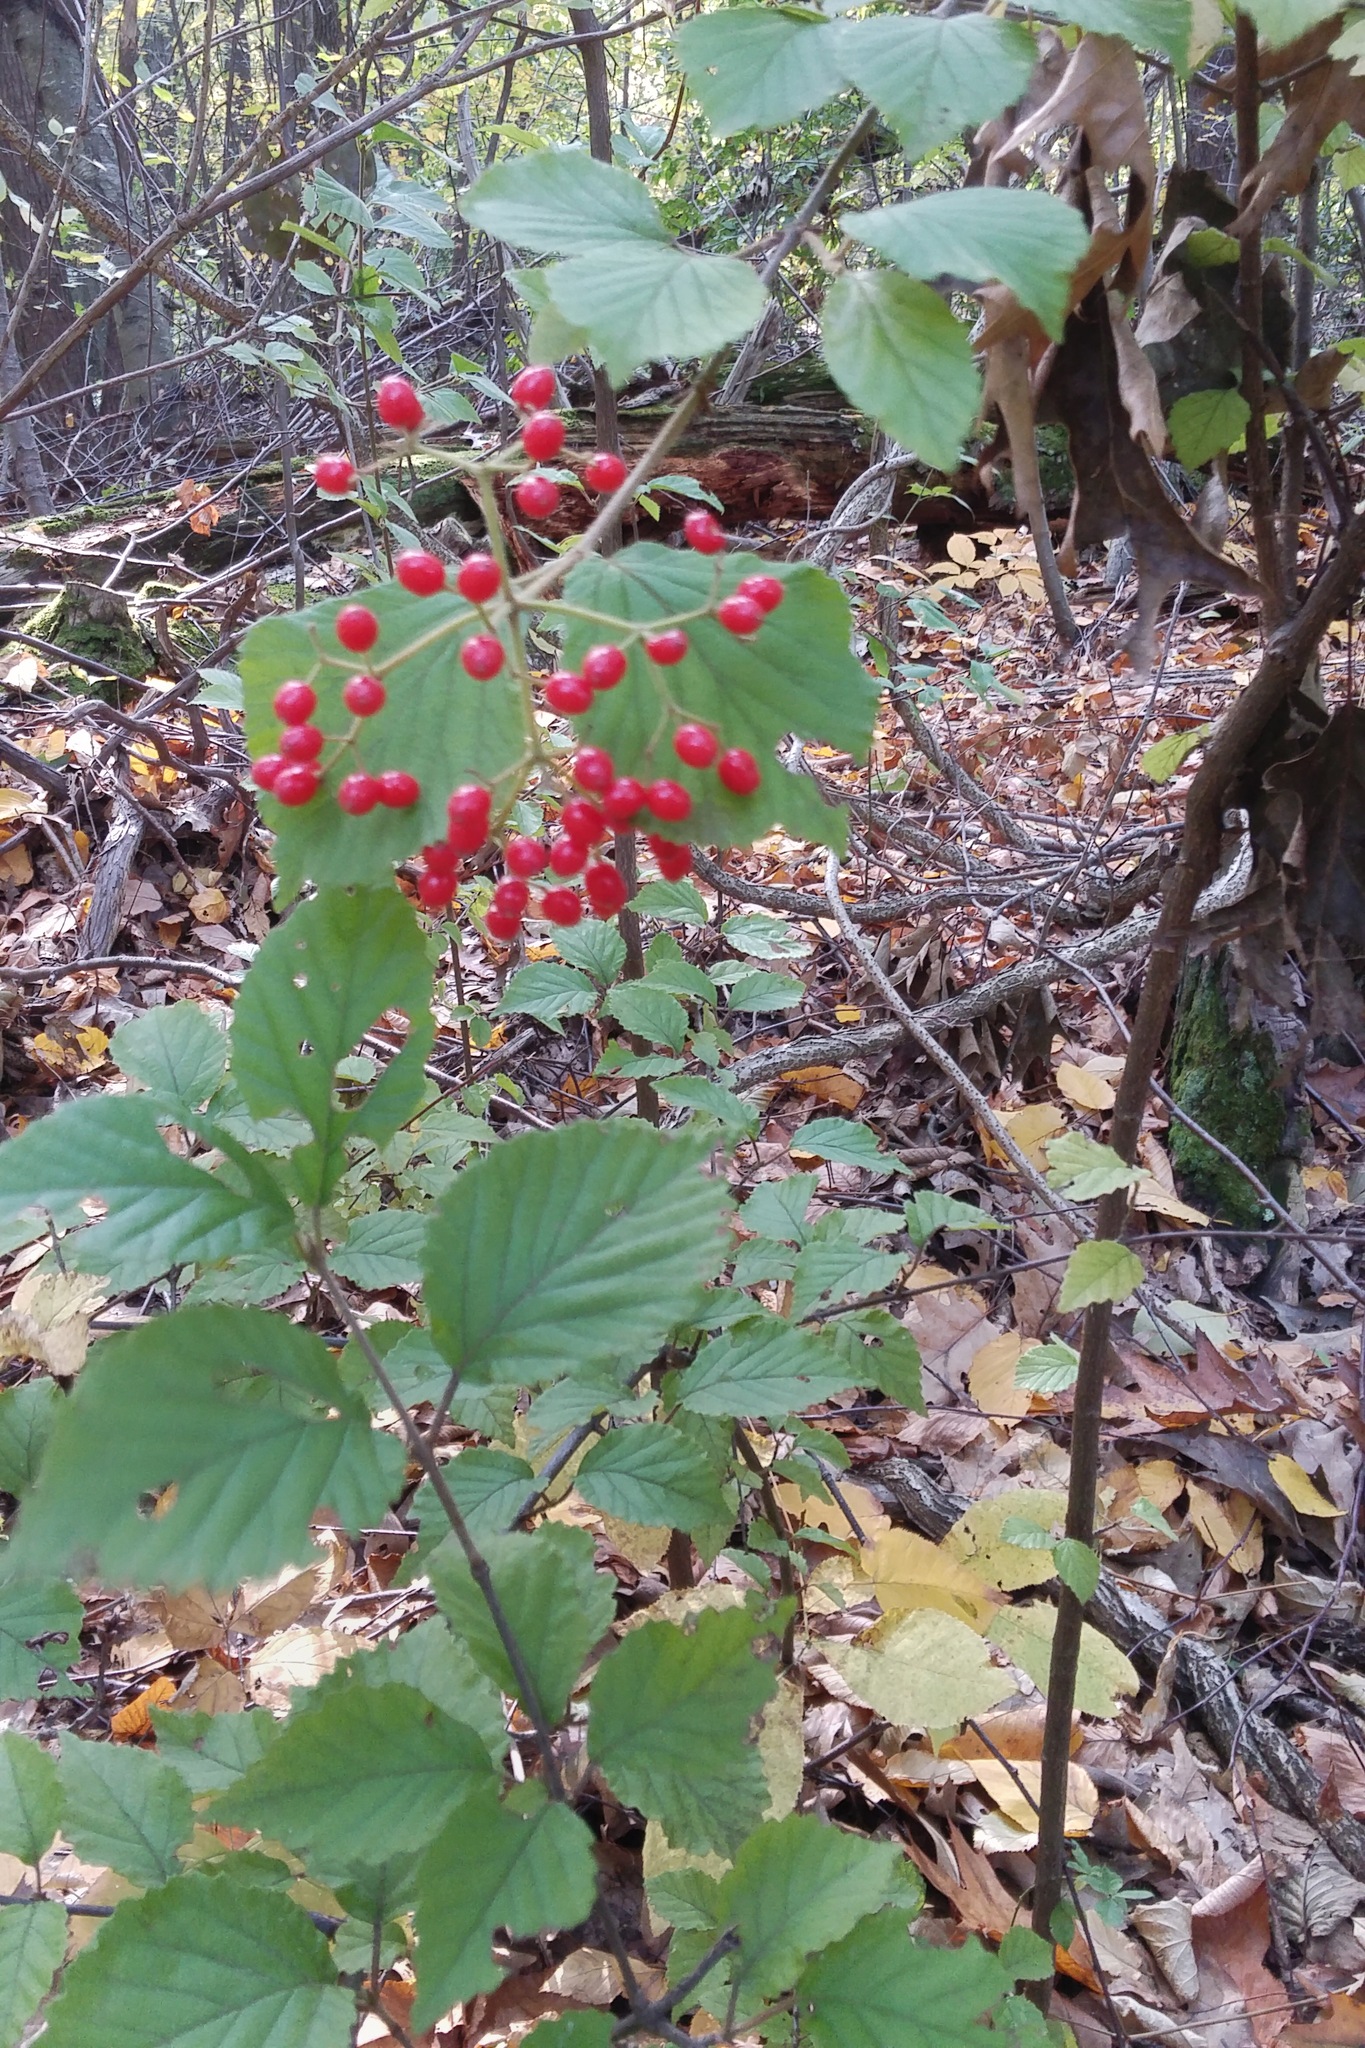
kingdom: Plantae
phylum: Tracheophyta
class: Magnoliopsida
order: Dipsacales
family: Viburnaceae
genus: Viburnum
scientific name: Viburnum dilatatum
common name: Linden arrowwood
